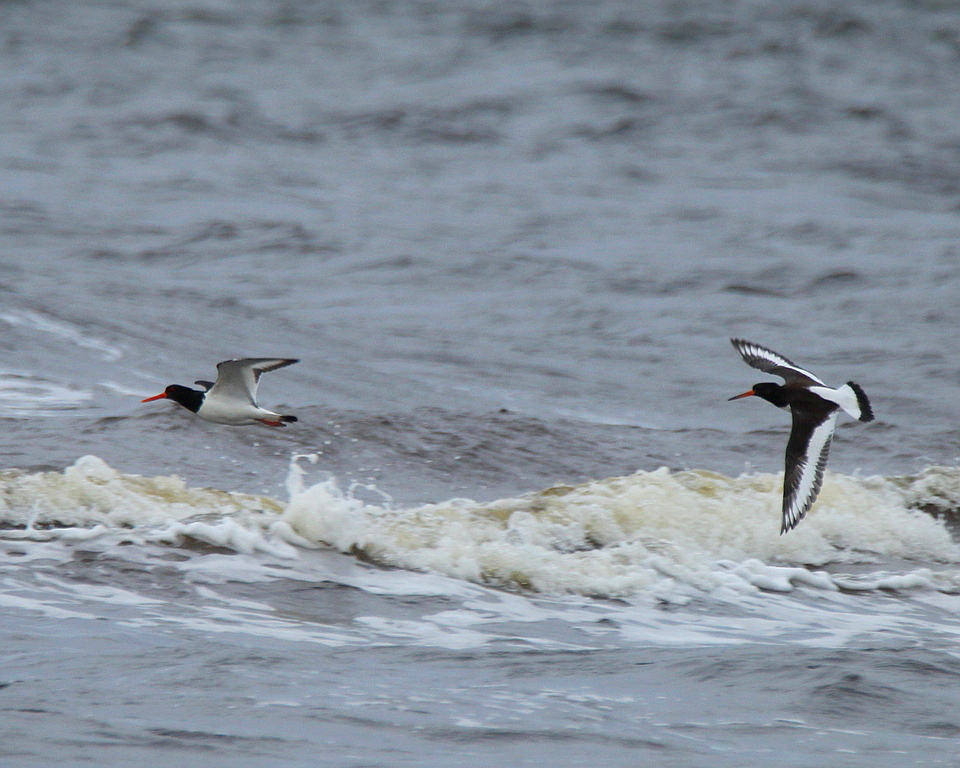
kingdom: Animalia
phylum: Chordata
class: Aves
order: Charadriiformes
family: Haematopodidae
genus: Haematopus
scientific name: Haematopus ostralegus
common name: Eurasian oystercatcher
